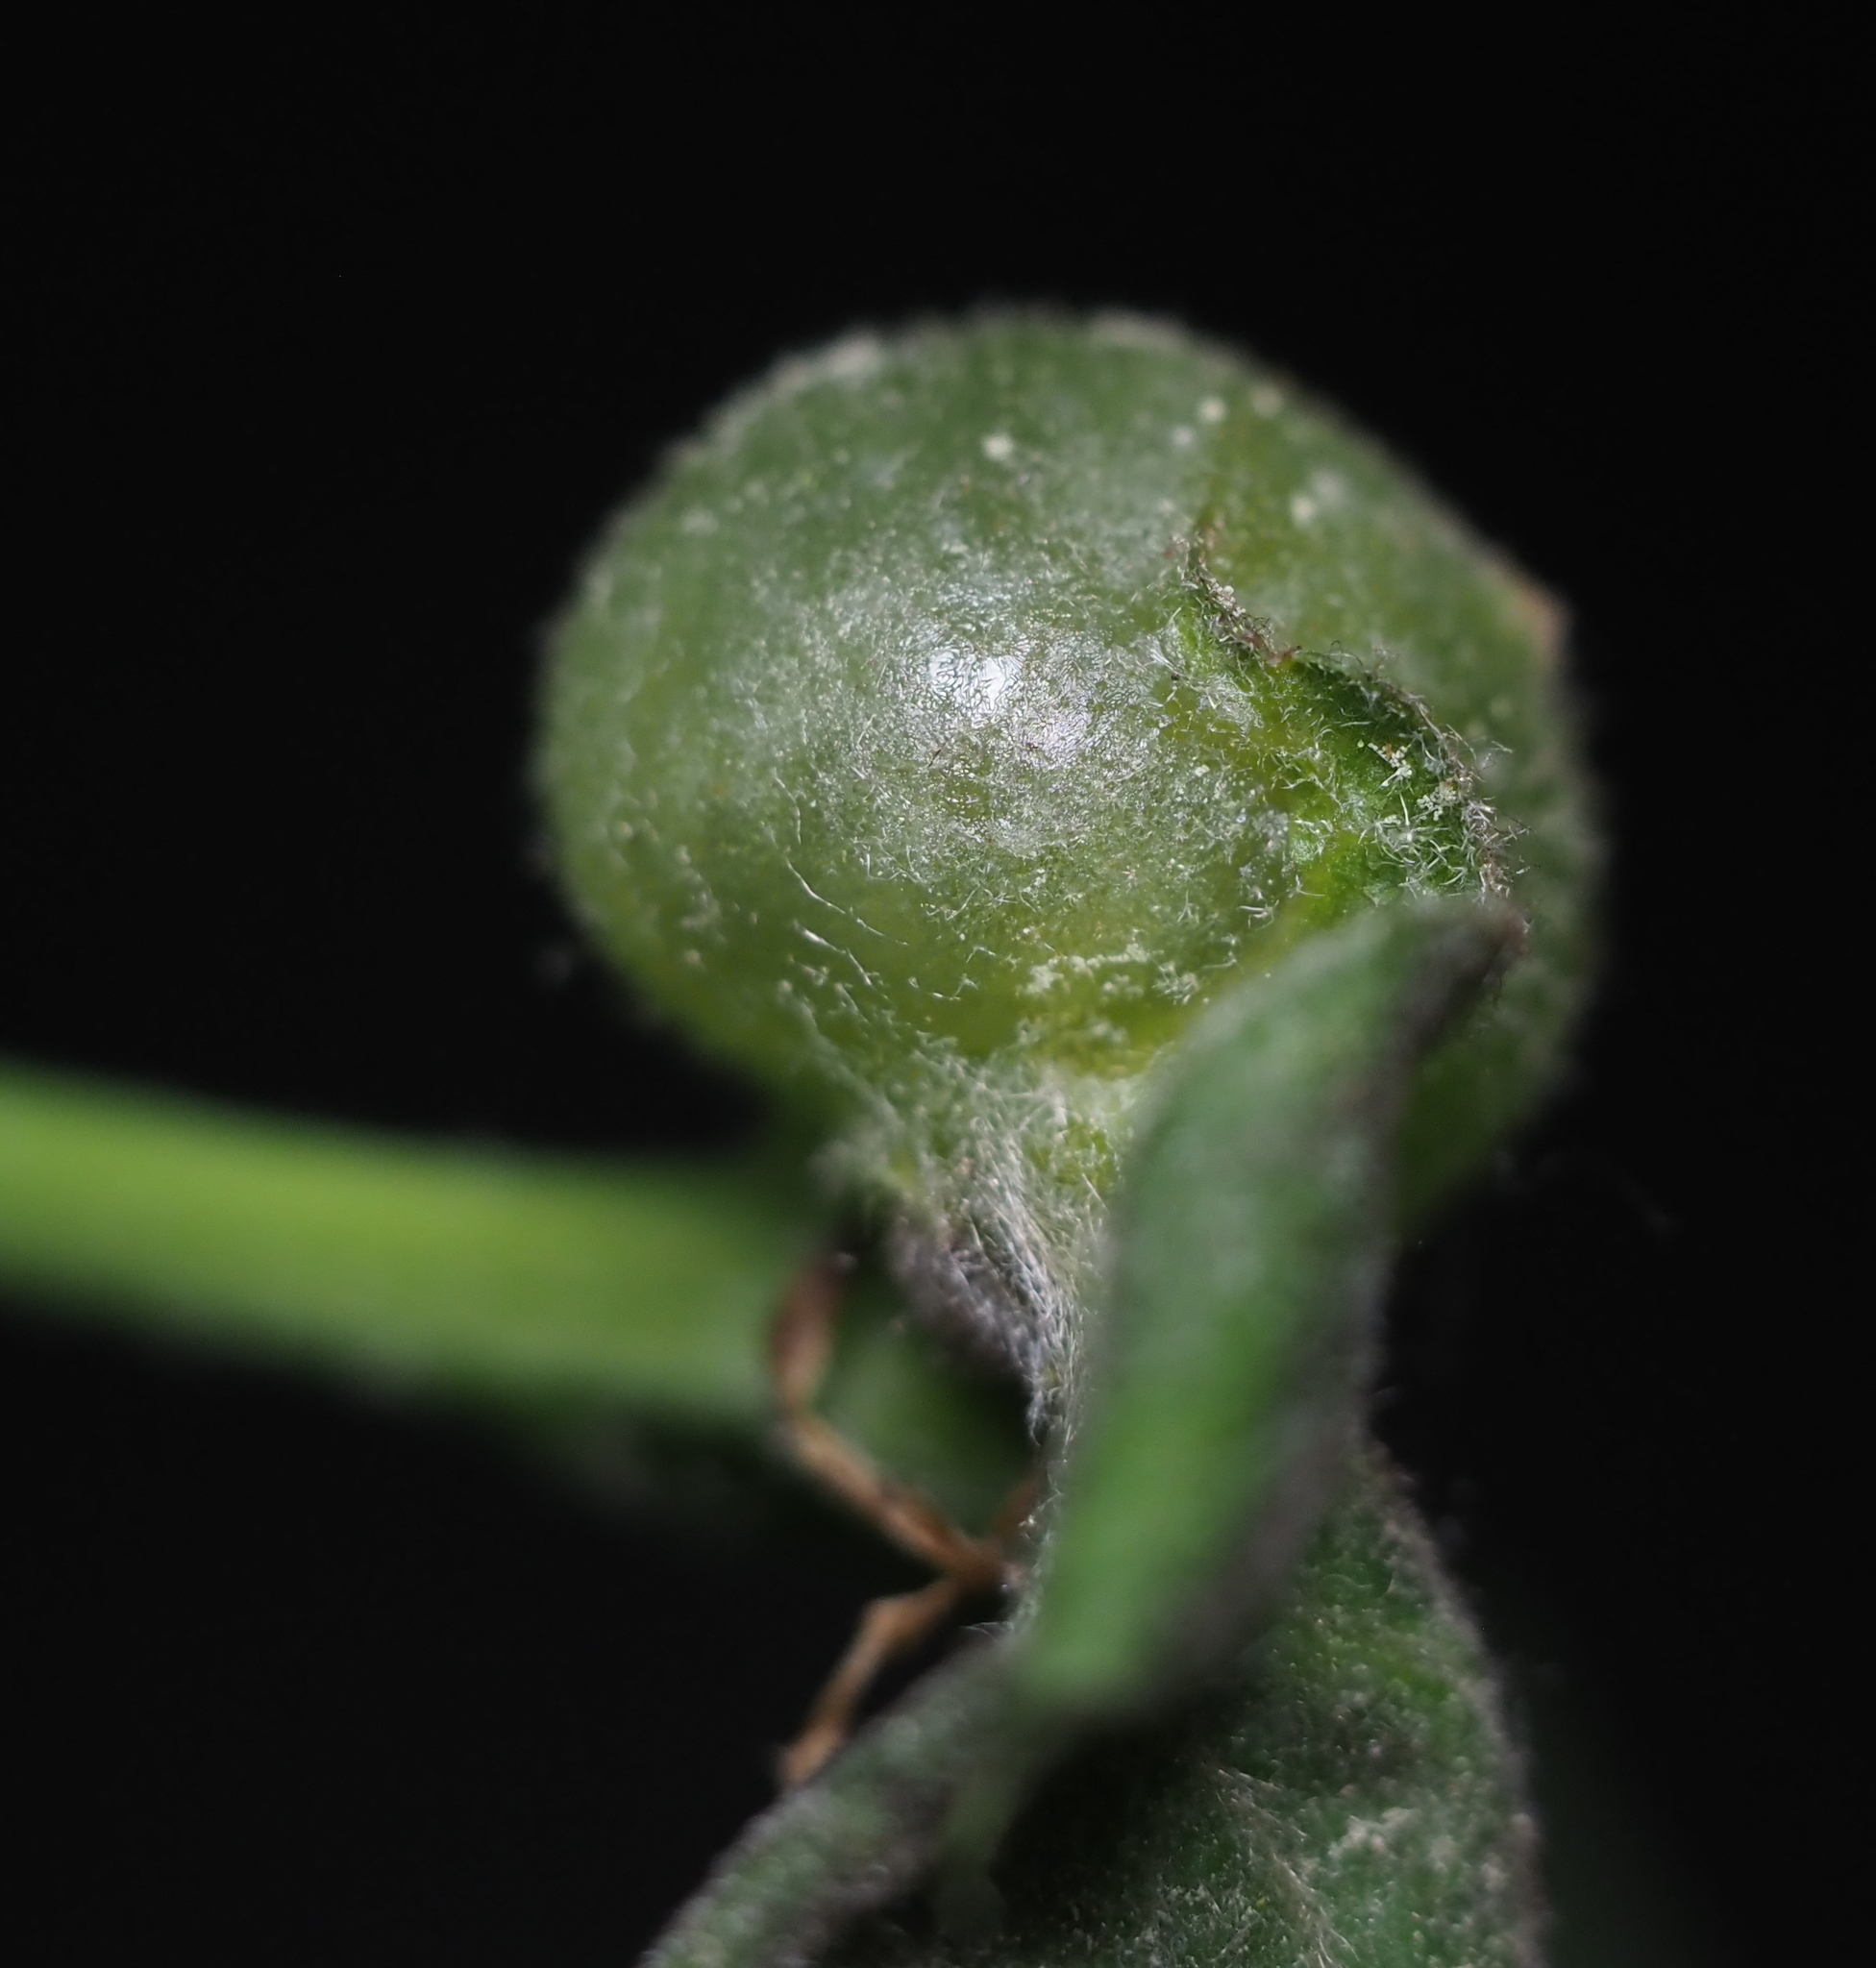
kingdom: Animalia
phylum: Arthropoda
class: Insecta
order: Hymenoptera
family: Cynipidae
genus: Dryocosmus
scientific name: Dryocosmus quercuspalustris
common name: Succulent oak gall wasp
